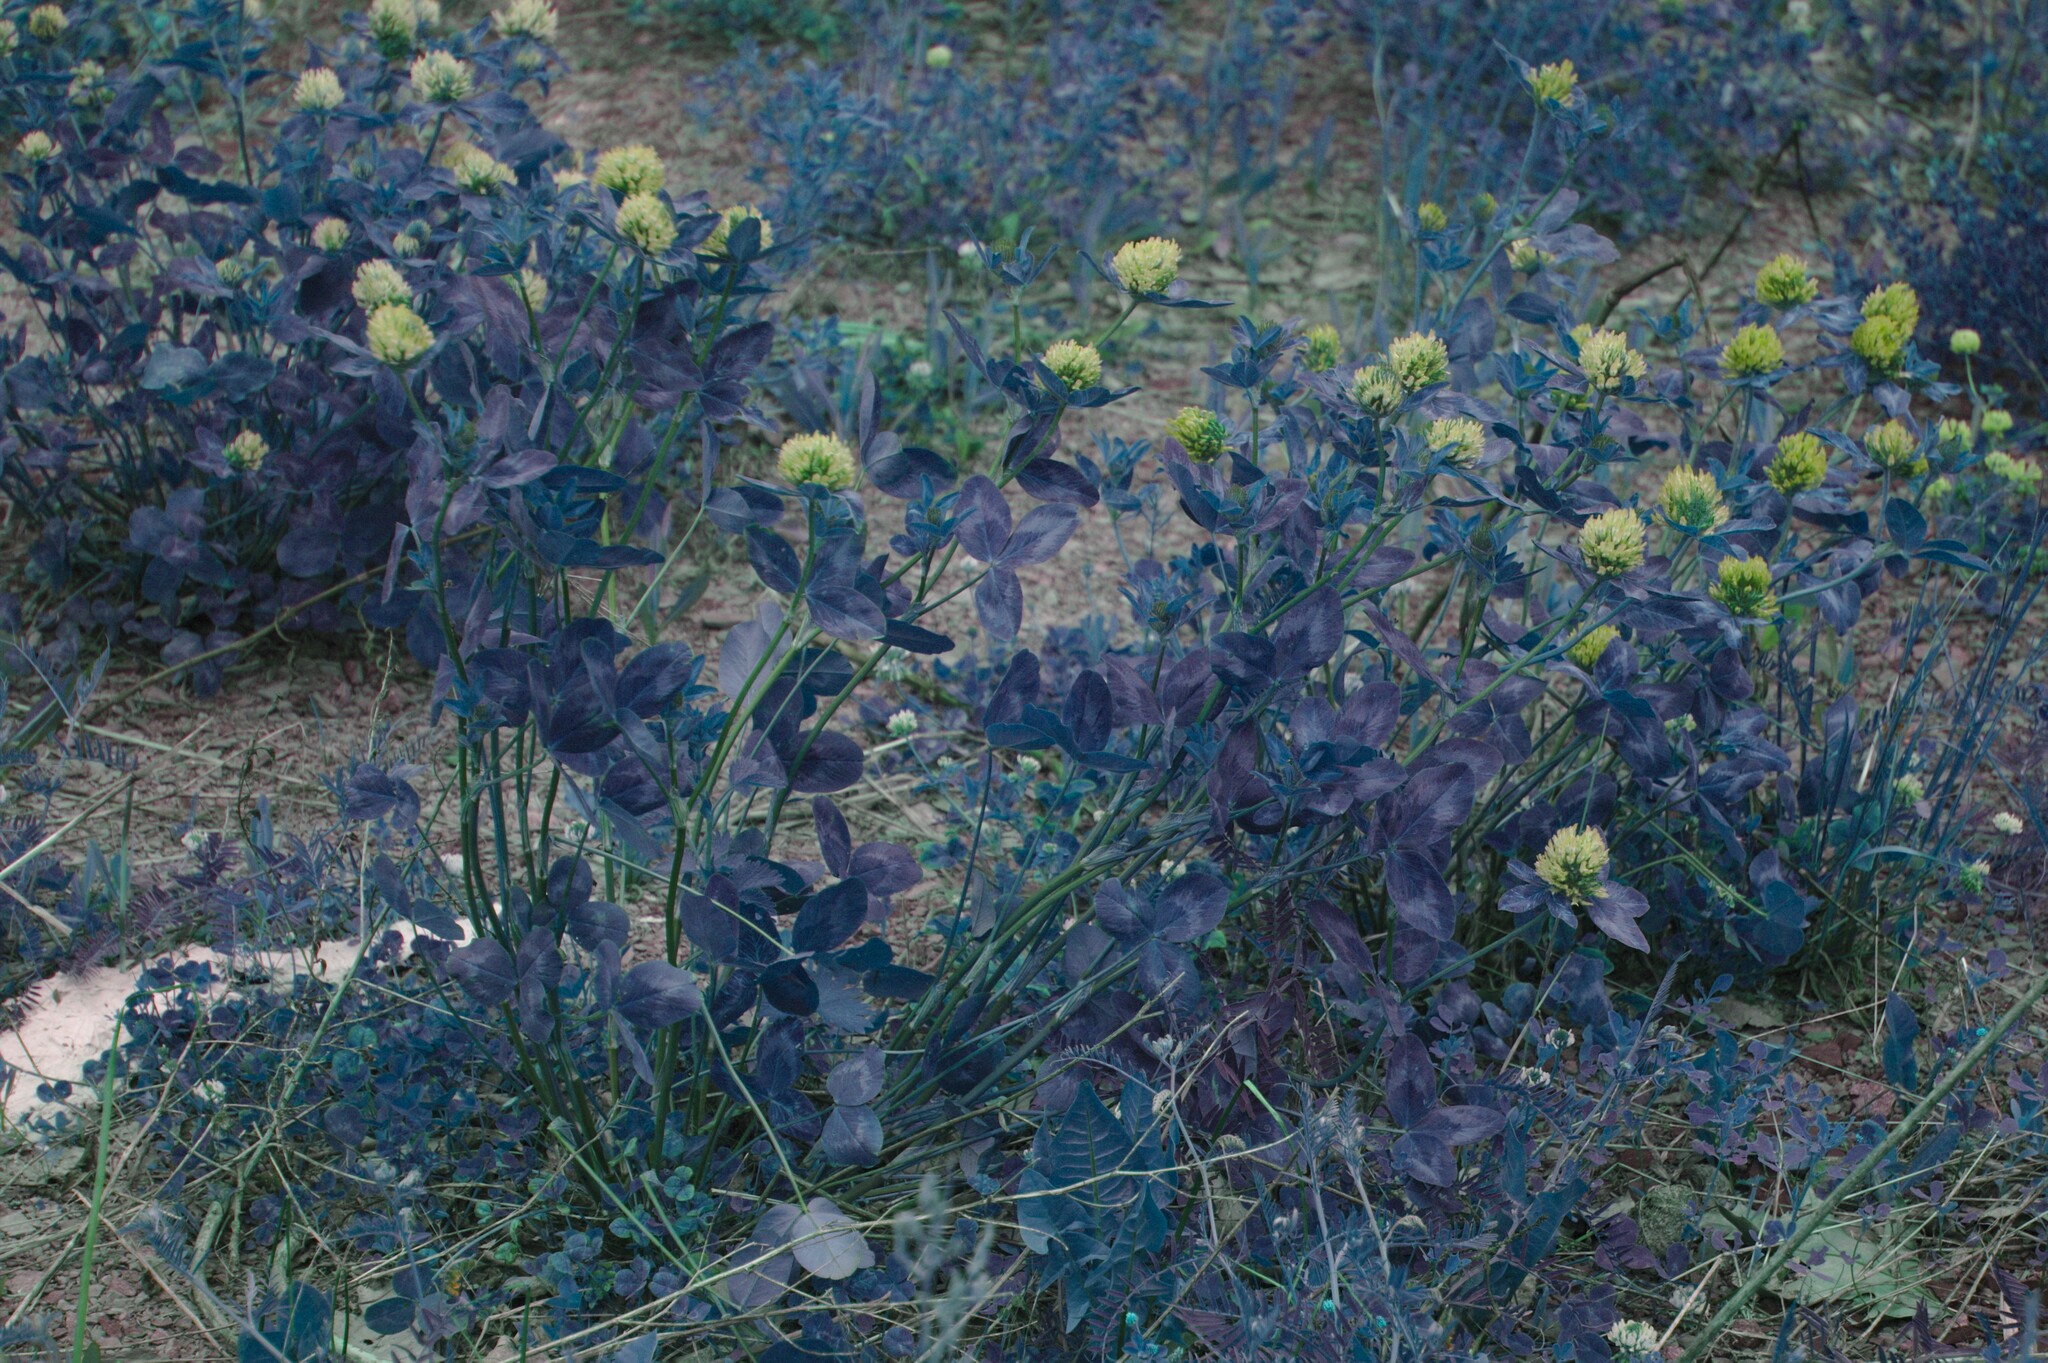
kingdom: Plantae
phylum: Tracheophyta
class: Magnoliopsida
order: Fabales
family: Fabaceae
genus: Trifolium
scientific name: Trifolium pratense
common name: Red clover
